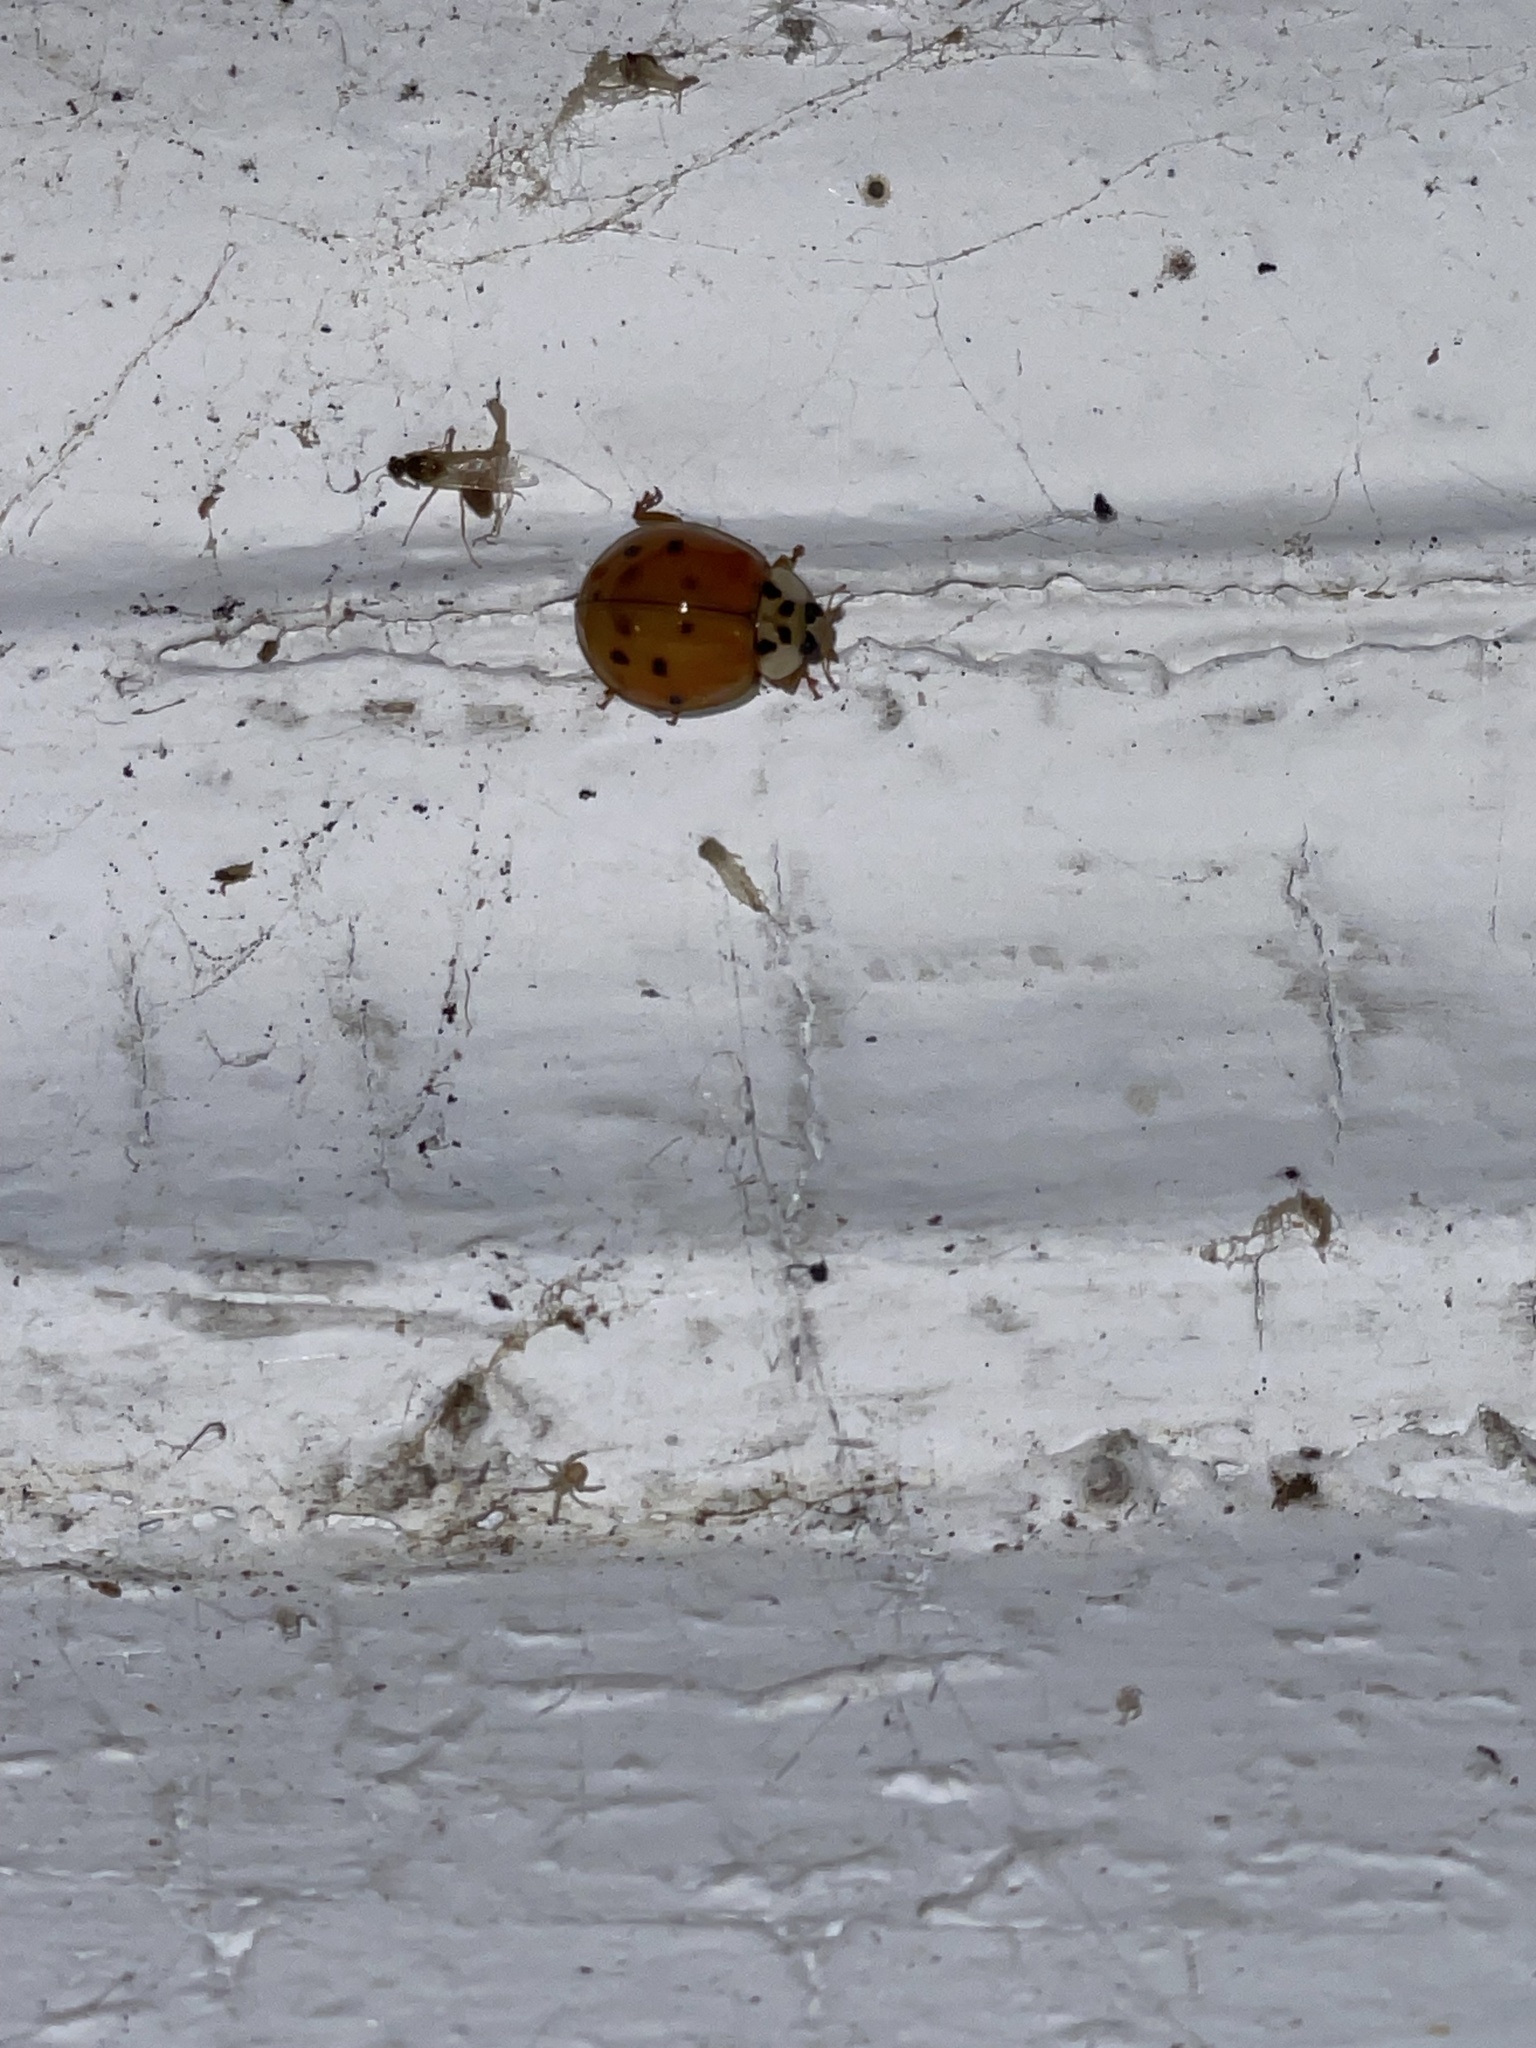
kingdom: Animalia
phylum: Arthropoda
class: Insecta
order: Coleoptera
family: Coccinellidae
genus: Harmonia
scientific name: Harmonia axyridis
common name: Harlequin ladybird
